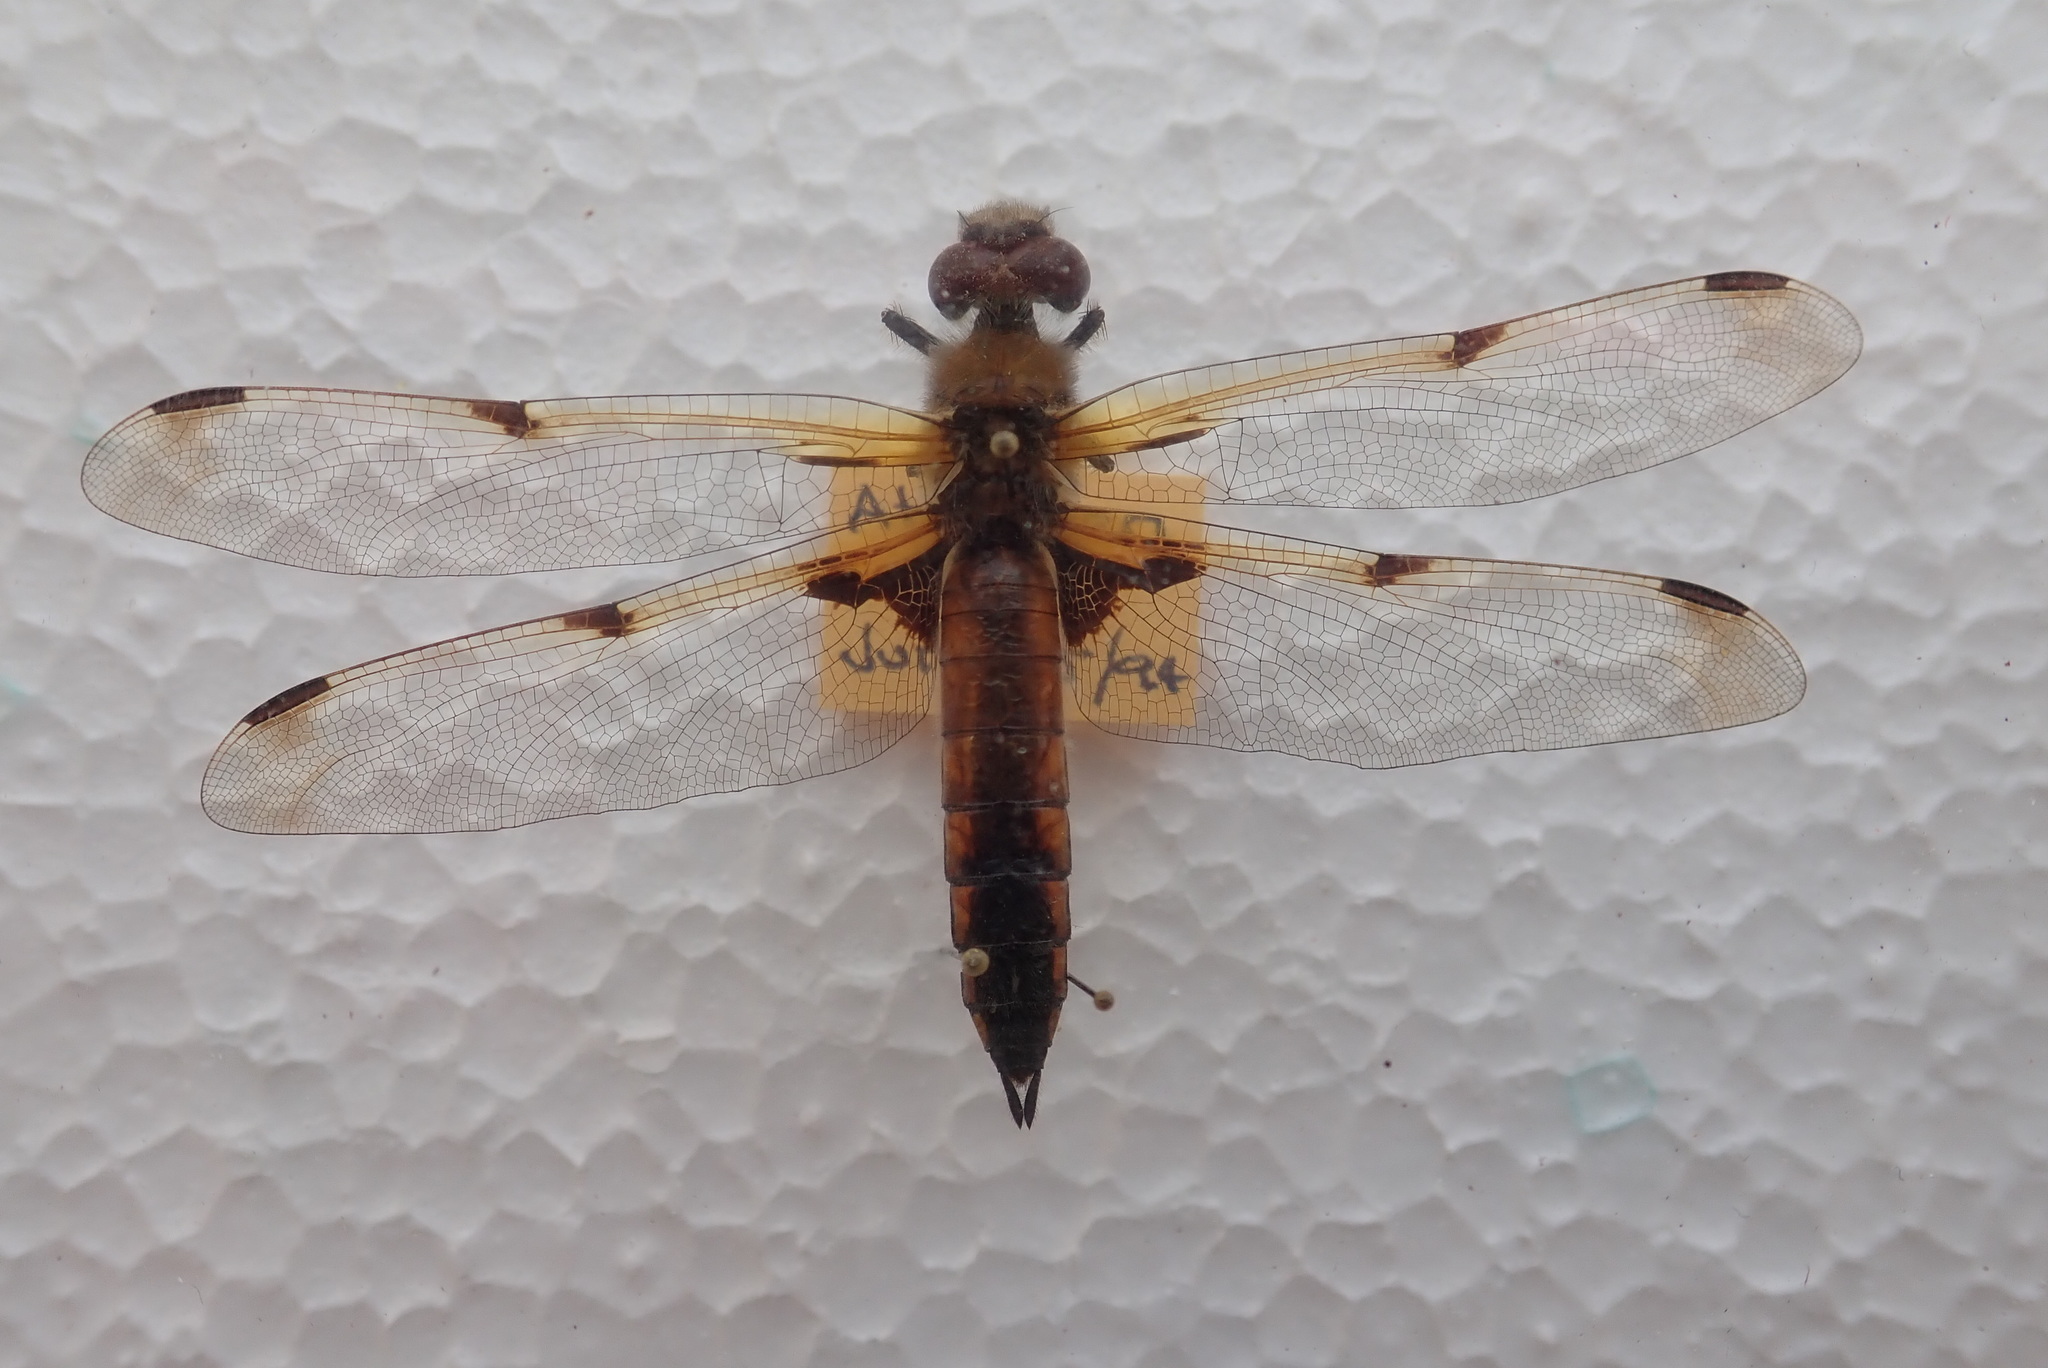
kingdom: Animalia
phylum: Arthropoda
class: Insecta
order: Odonata
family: Libellulidae
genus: Libellula
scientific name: Libellula quadrimaculata
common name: Four-spotted chaser
